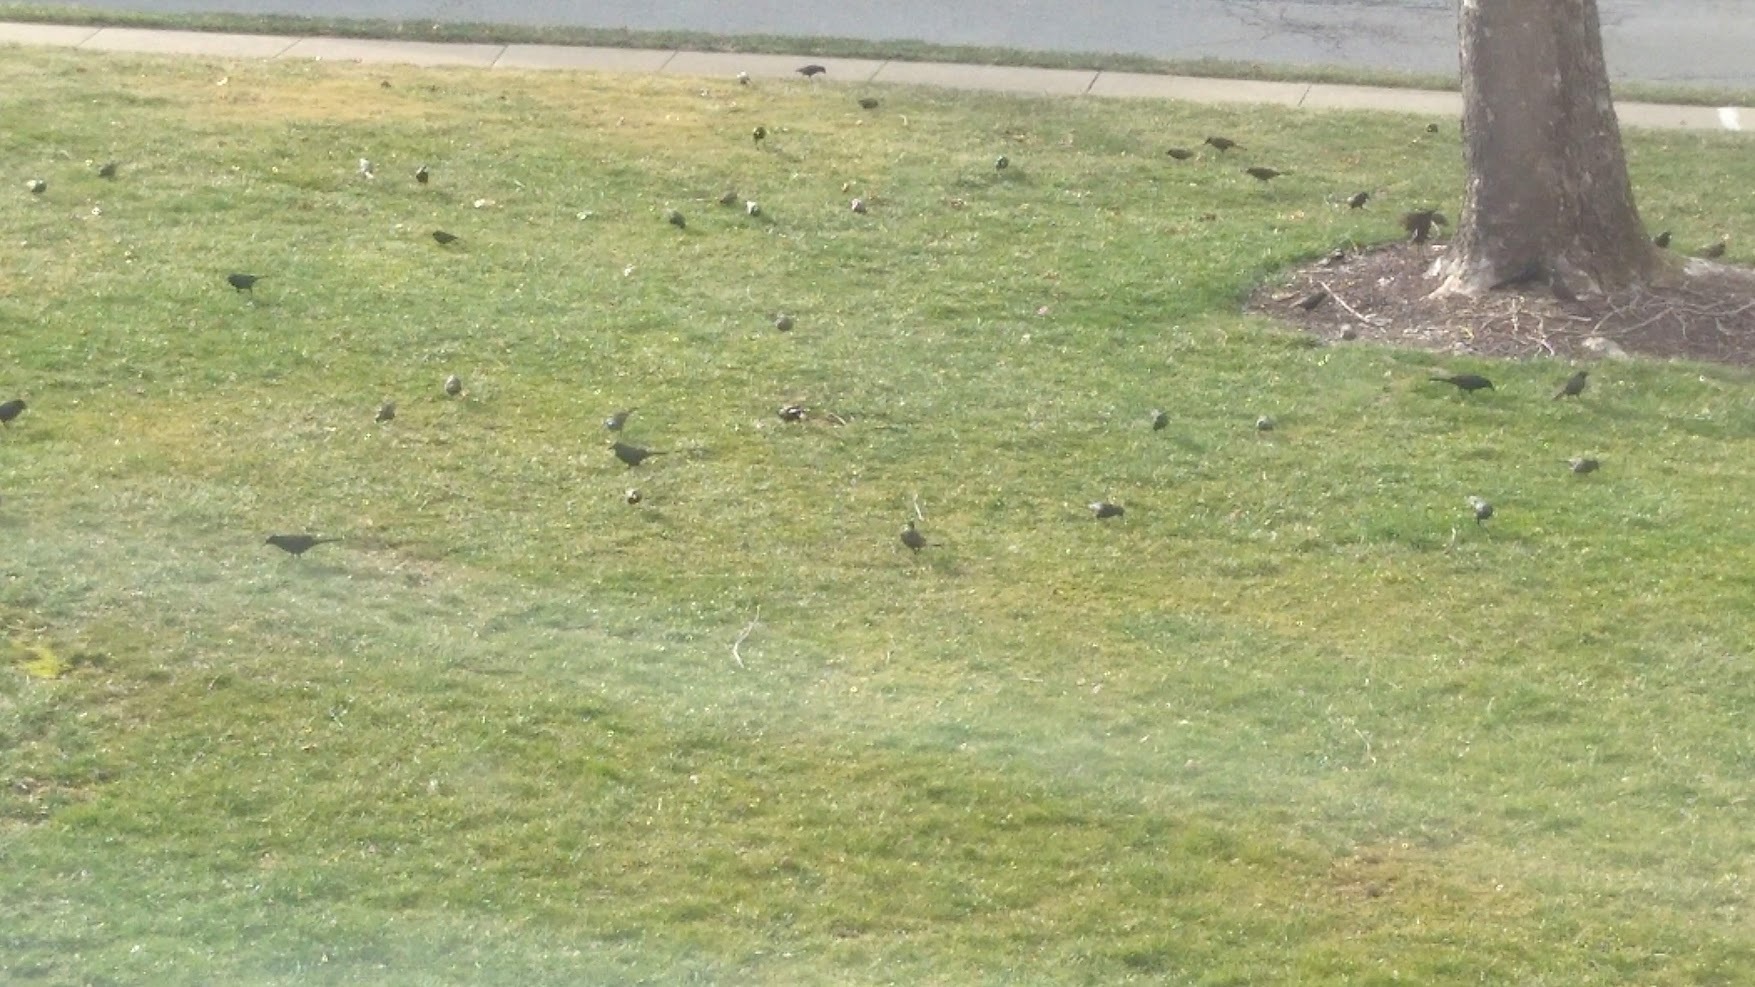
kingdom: Animalia
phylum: Chordata
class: Aves
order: Passeriformes
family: Sturnidae
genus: Sturnus
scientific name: Sturnus vulgaris
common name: Common starling
